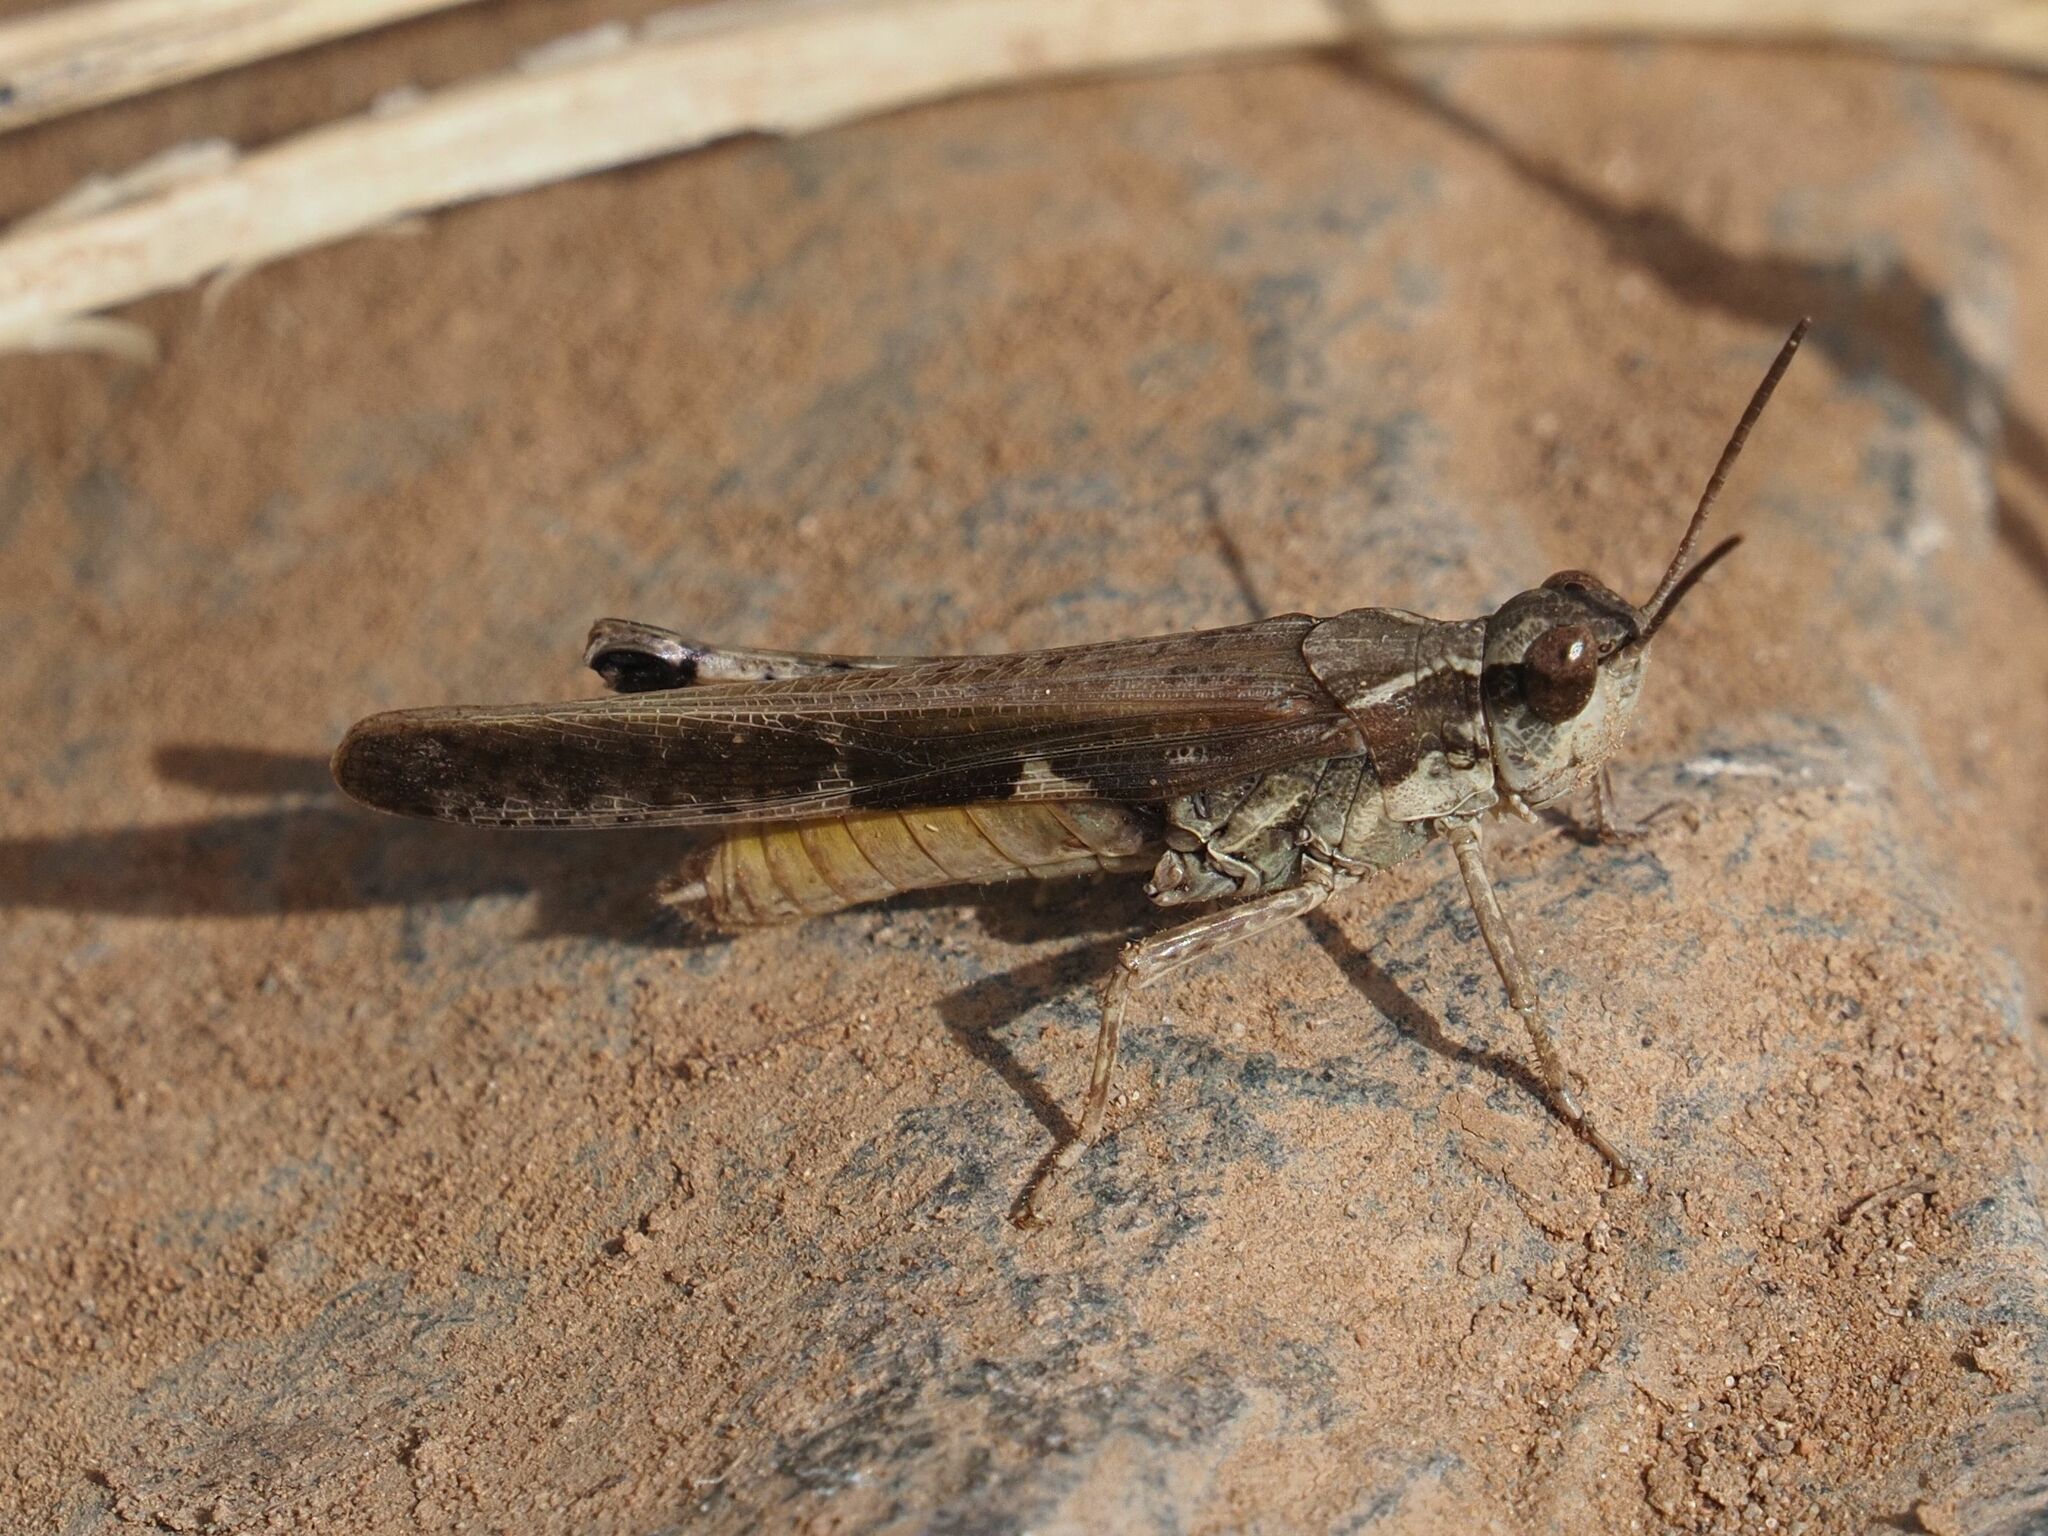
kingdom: Animalia
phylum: Arthropoda
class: Insecta
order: Orthoptera
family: Acrididae
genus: Aiolopus
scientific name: Aiolopus thalassinus
